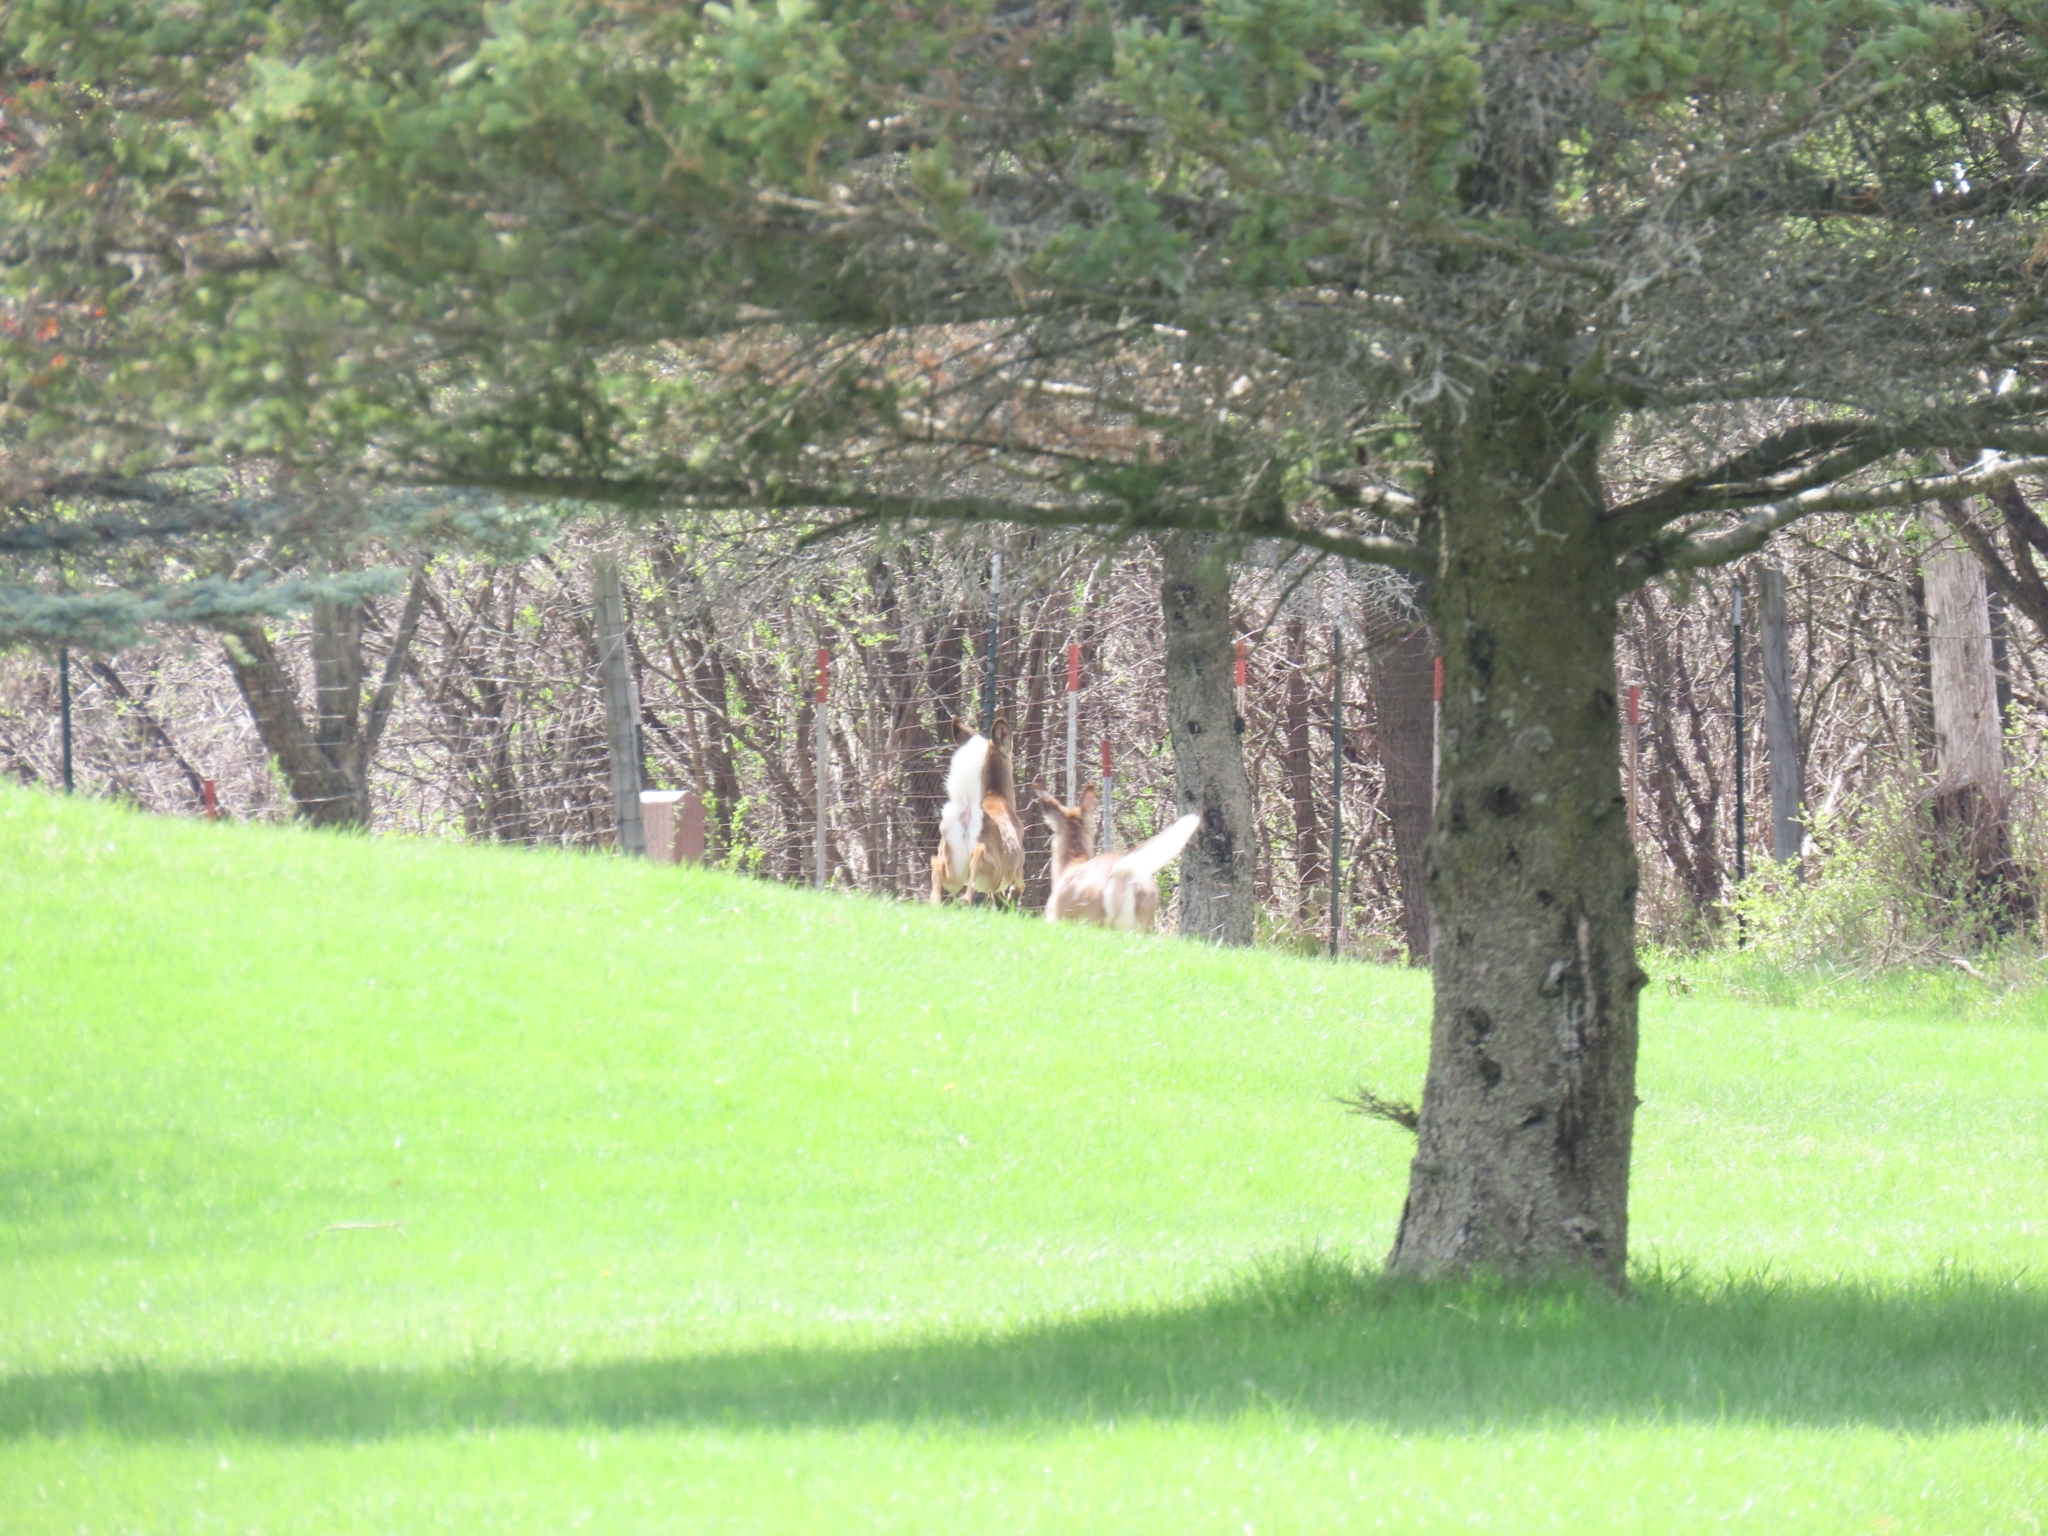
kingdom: Animalia
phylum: Chordata
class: Mammalia
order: Artiodactyla
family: Cervidae
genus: Odocoileus
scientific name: Odocoileus virginianus
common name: White-tailed deer
